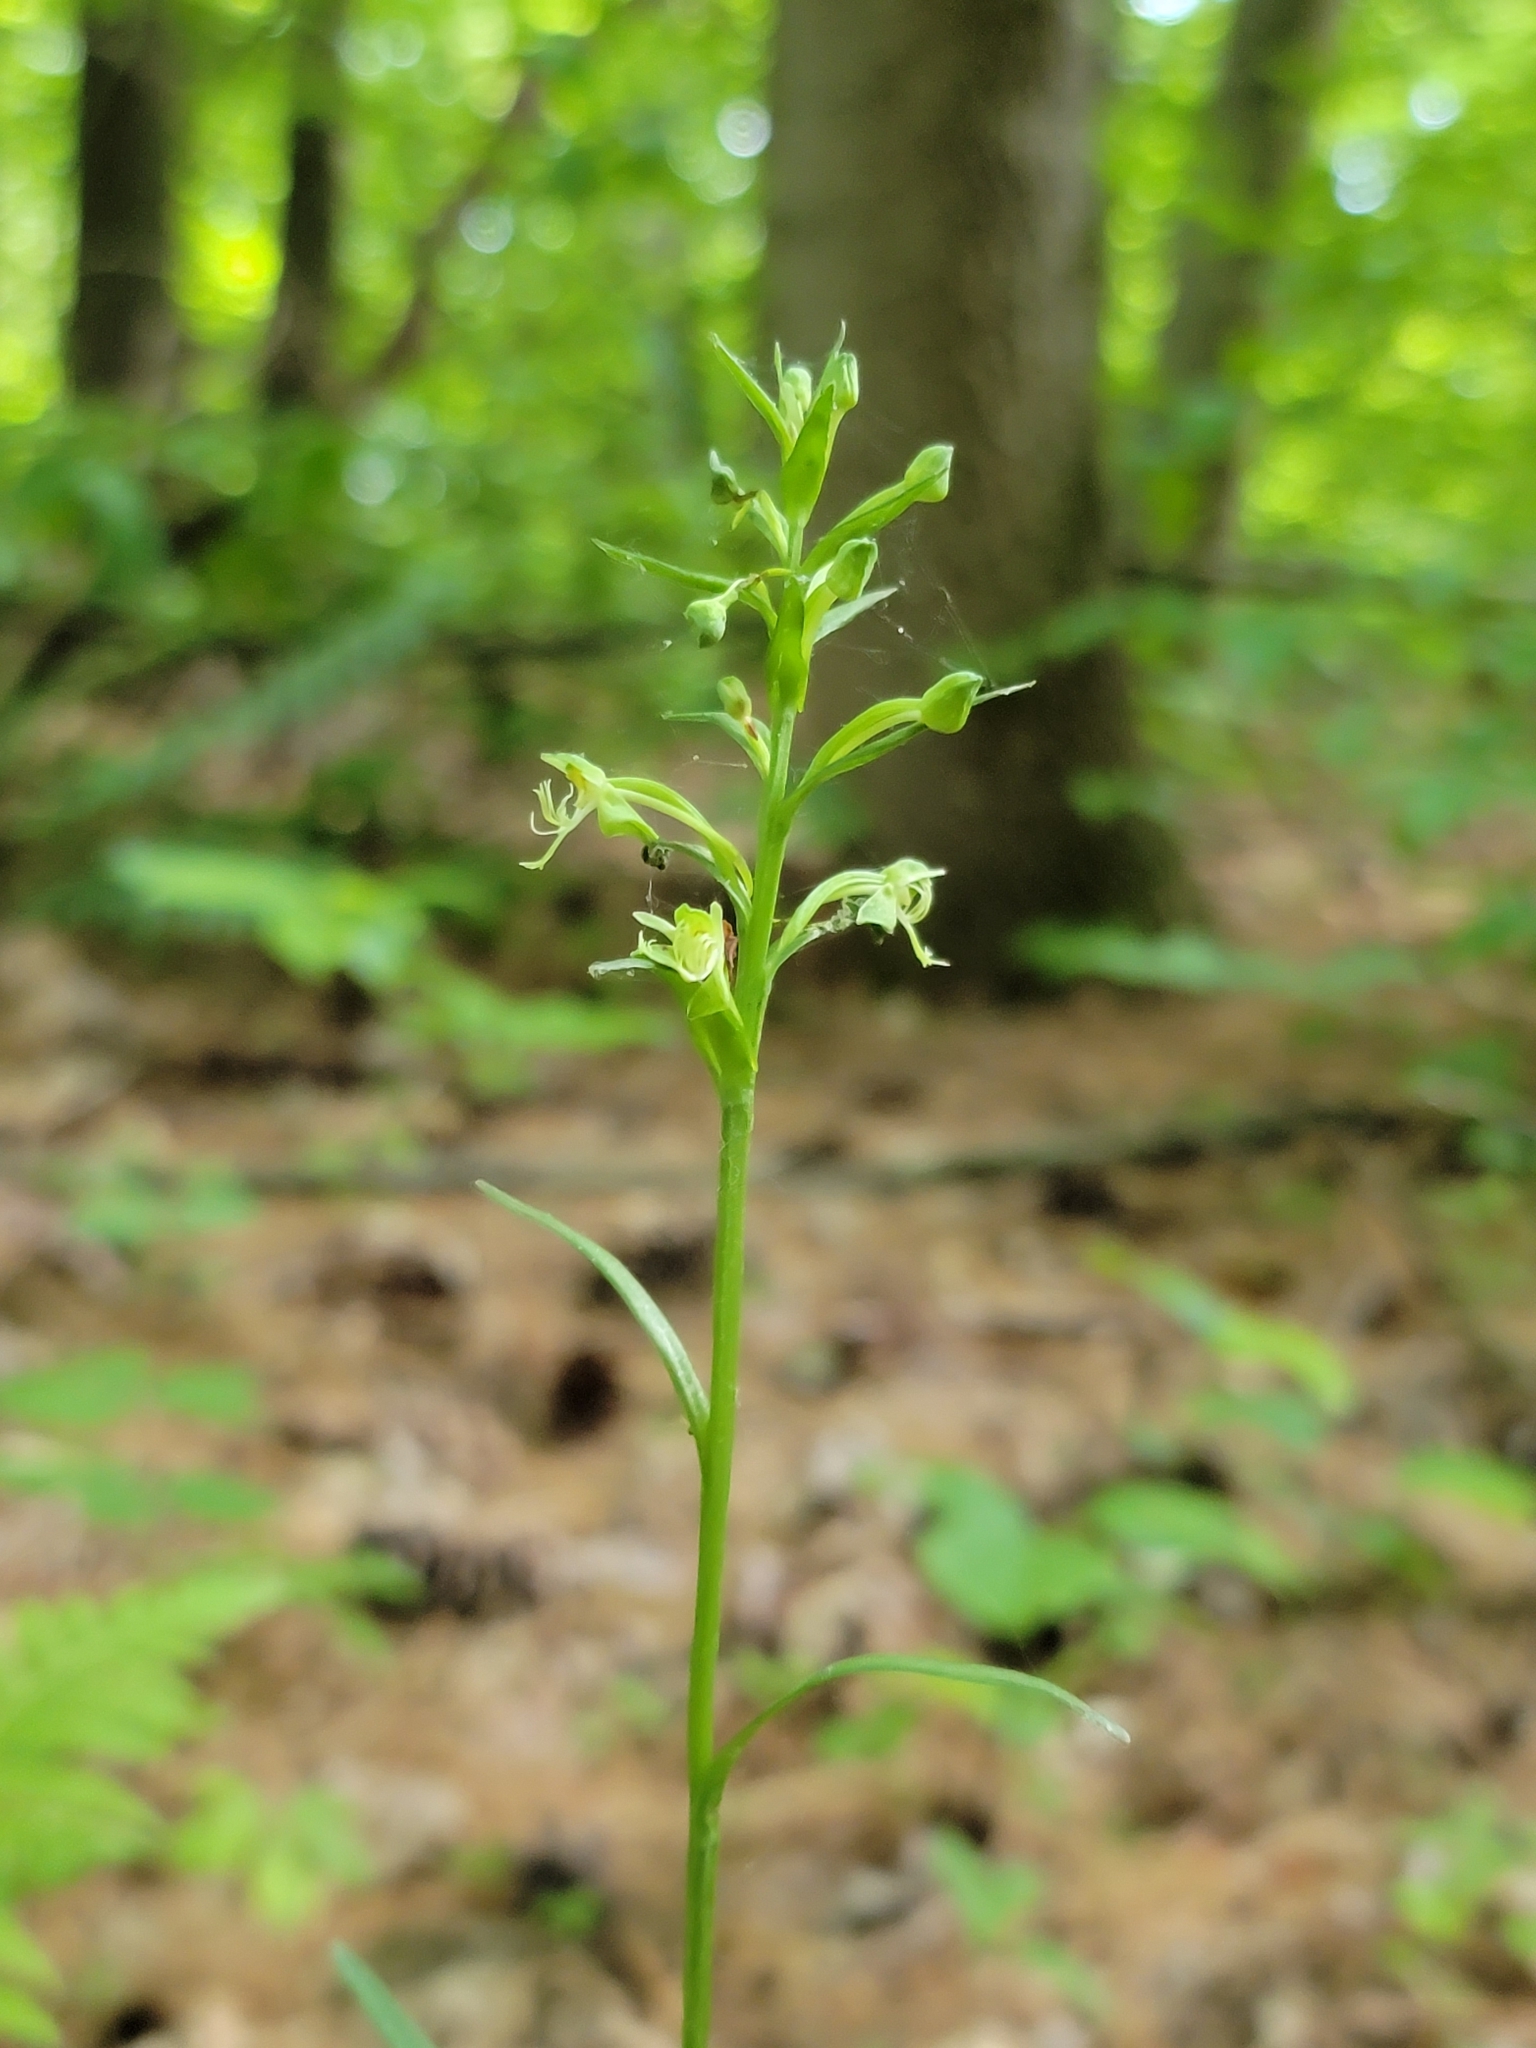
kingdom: Plantae
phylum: Tracheophyta
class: Liliopsida
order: Asparagales
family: Orchidaceae
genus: Platanthera
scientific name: Platanthera lacera
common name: Green fringed orchid
